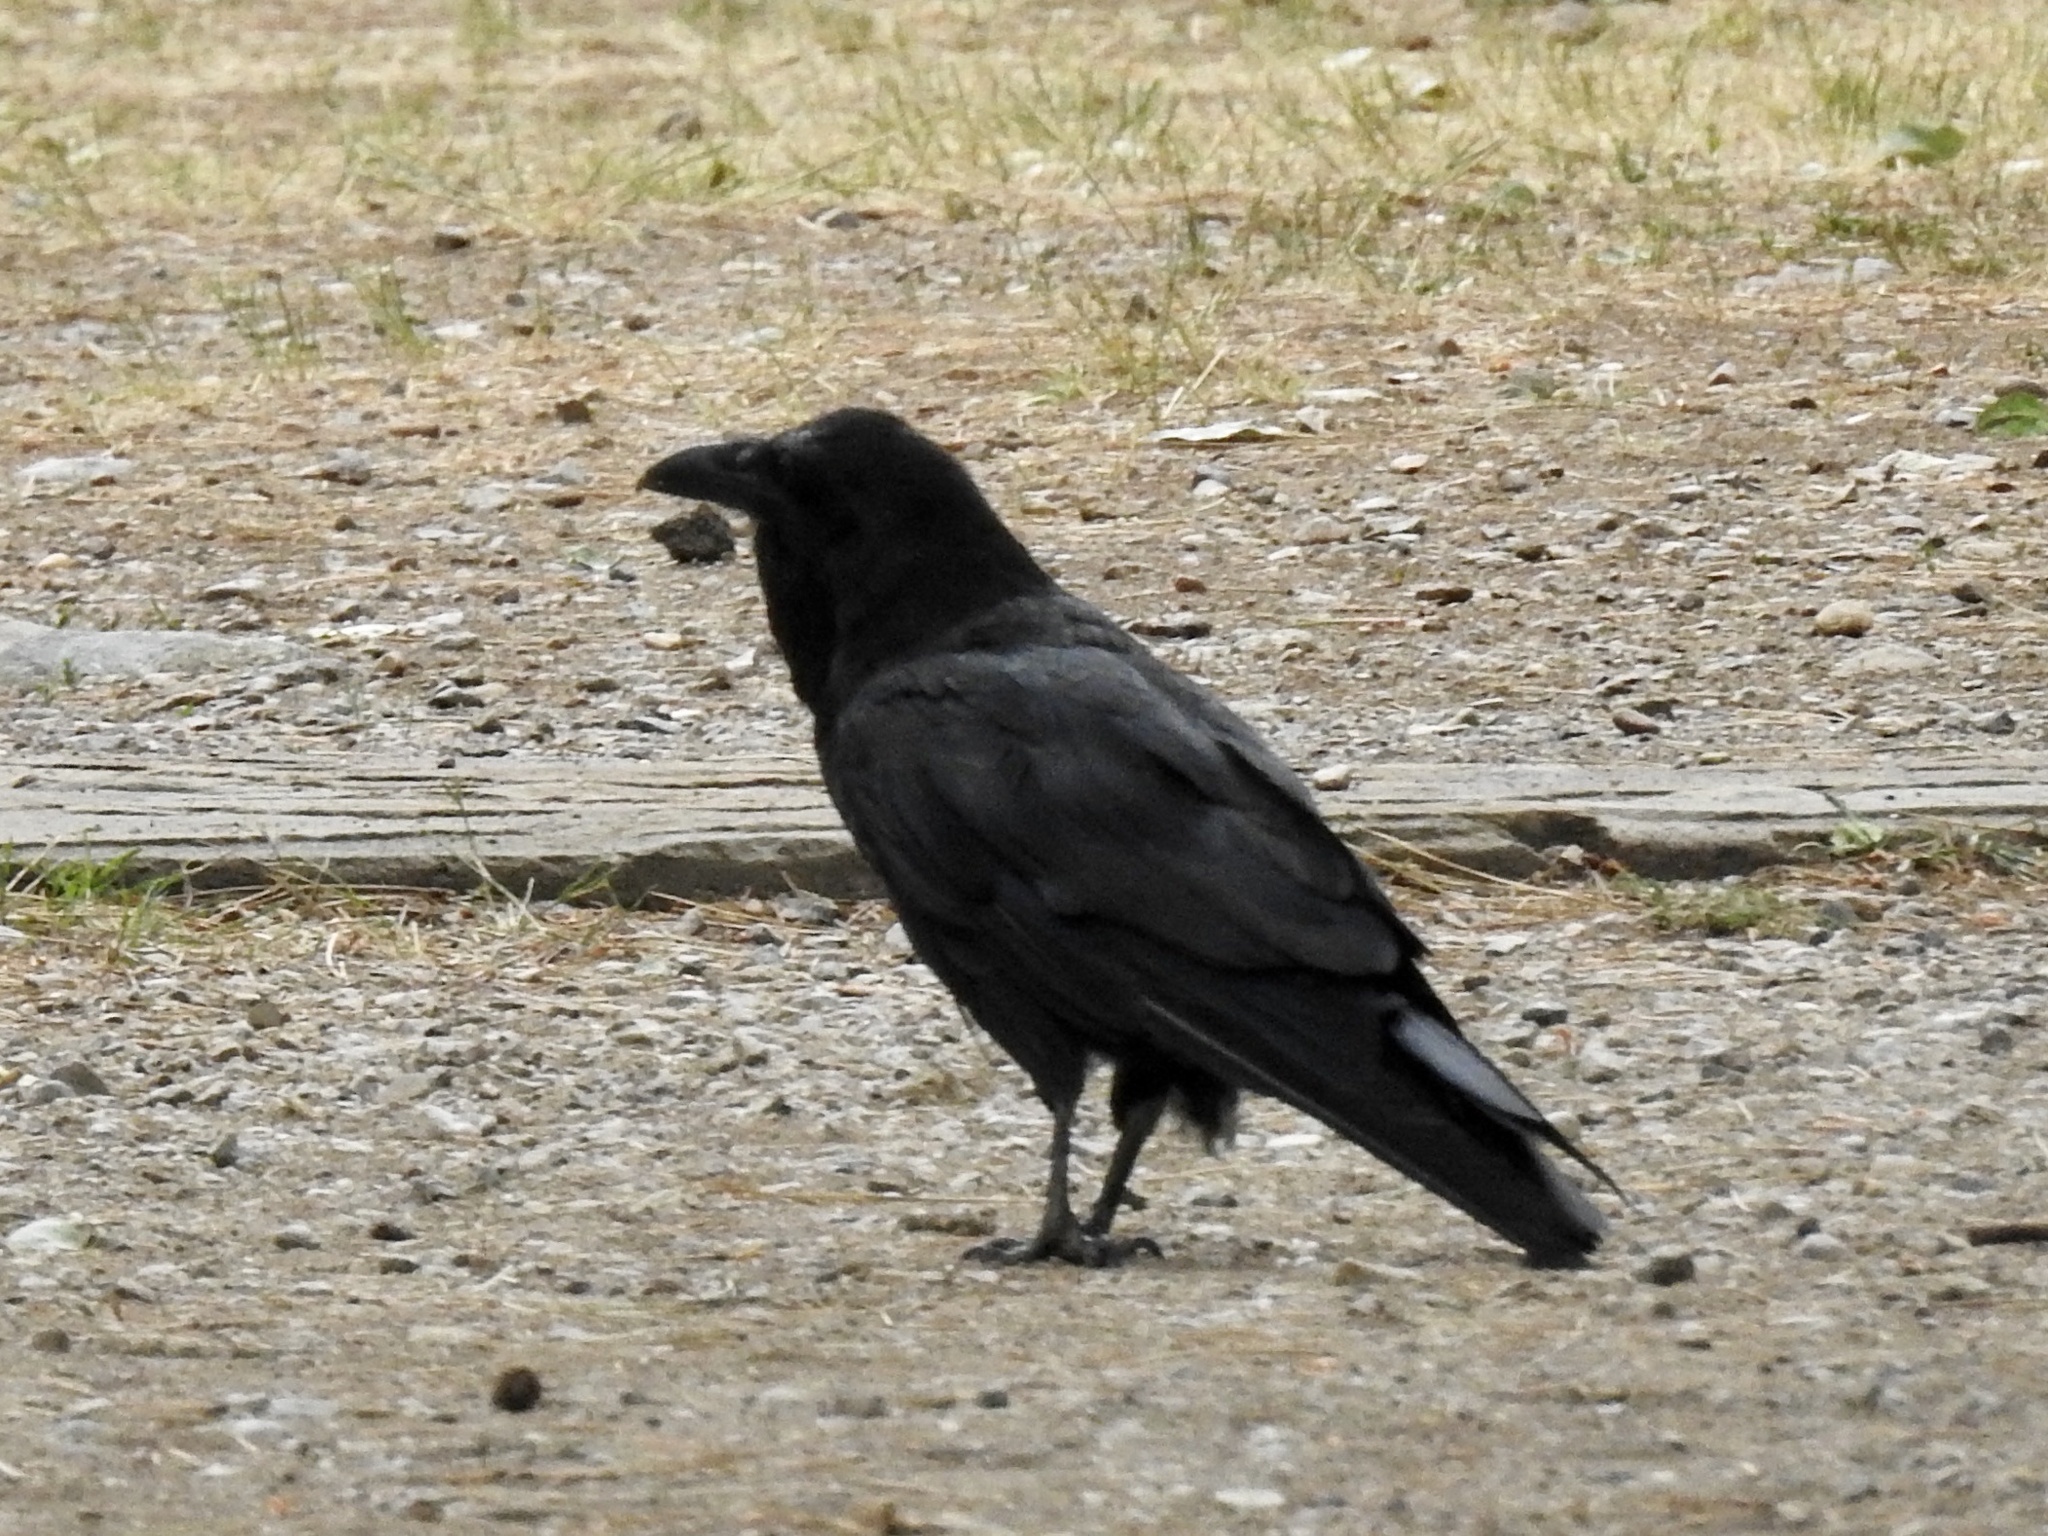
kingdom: Animalia
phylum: Chordata
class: Aves
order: Passeriformes
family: Corvidae
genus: Corvus
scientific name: Corvus corax
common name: Common raven
